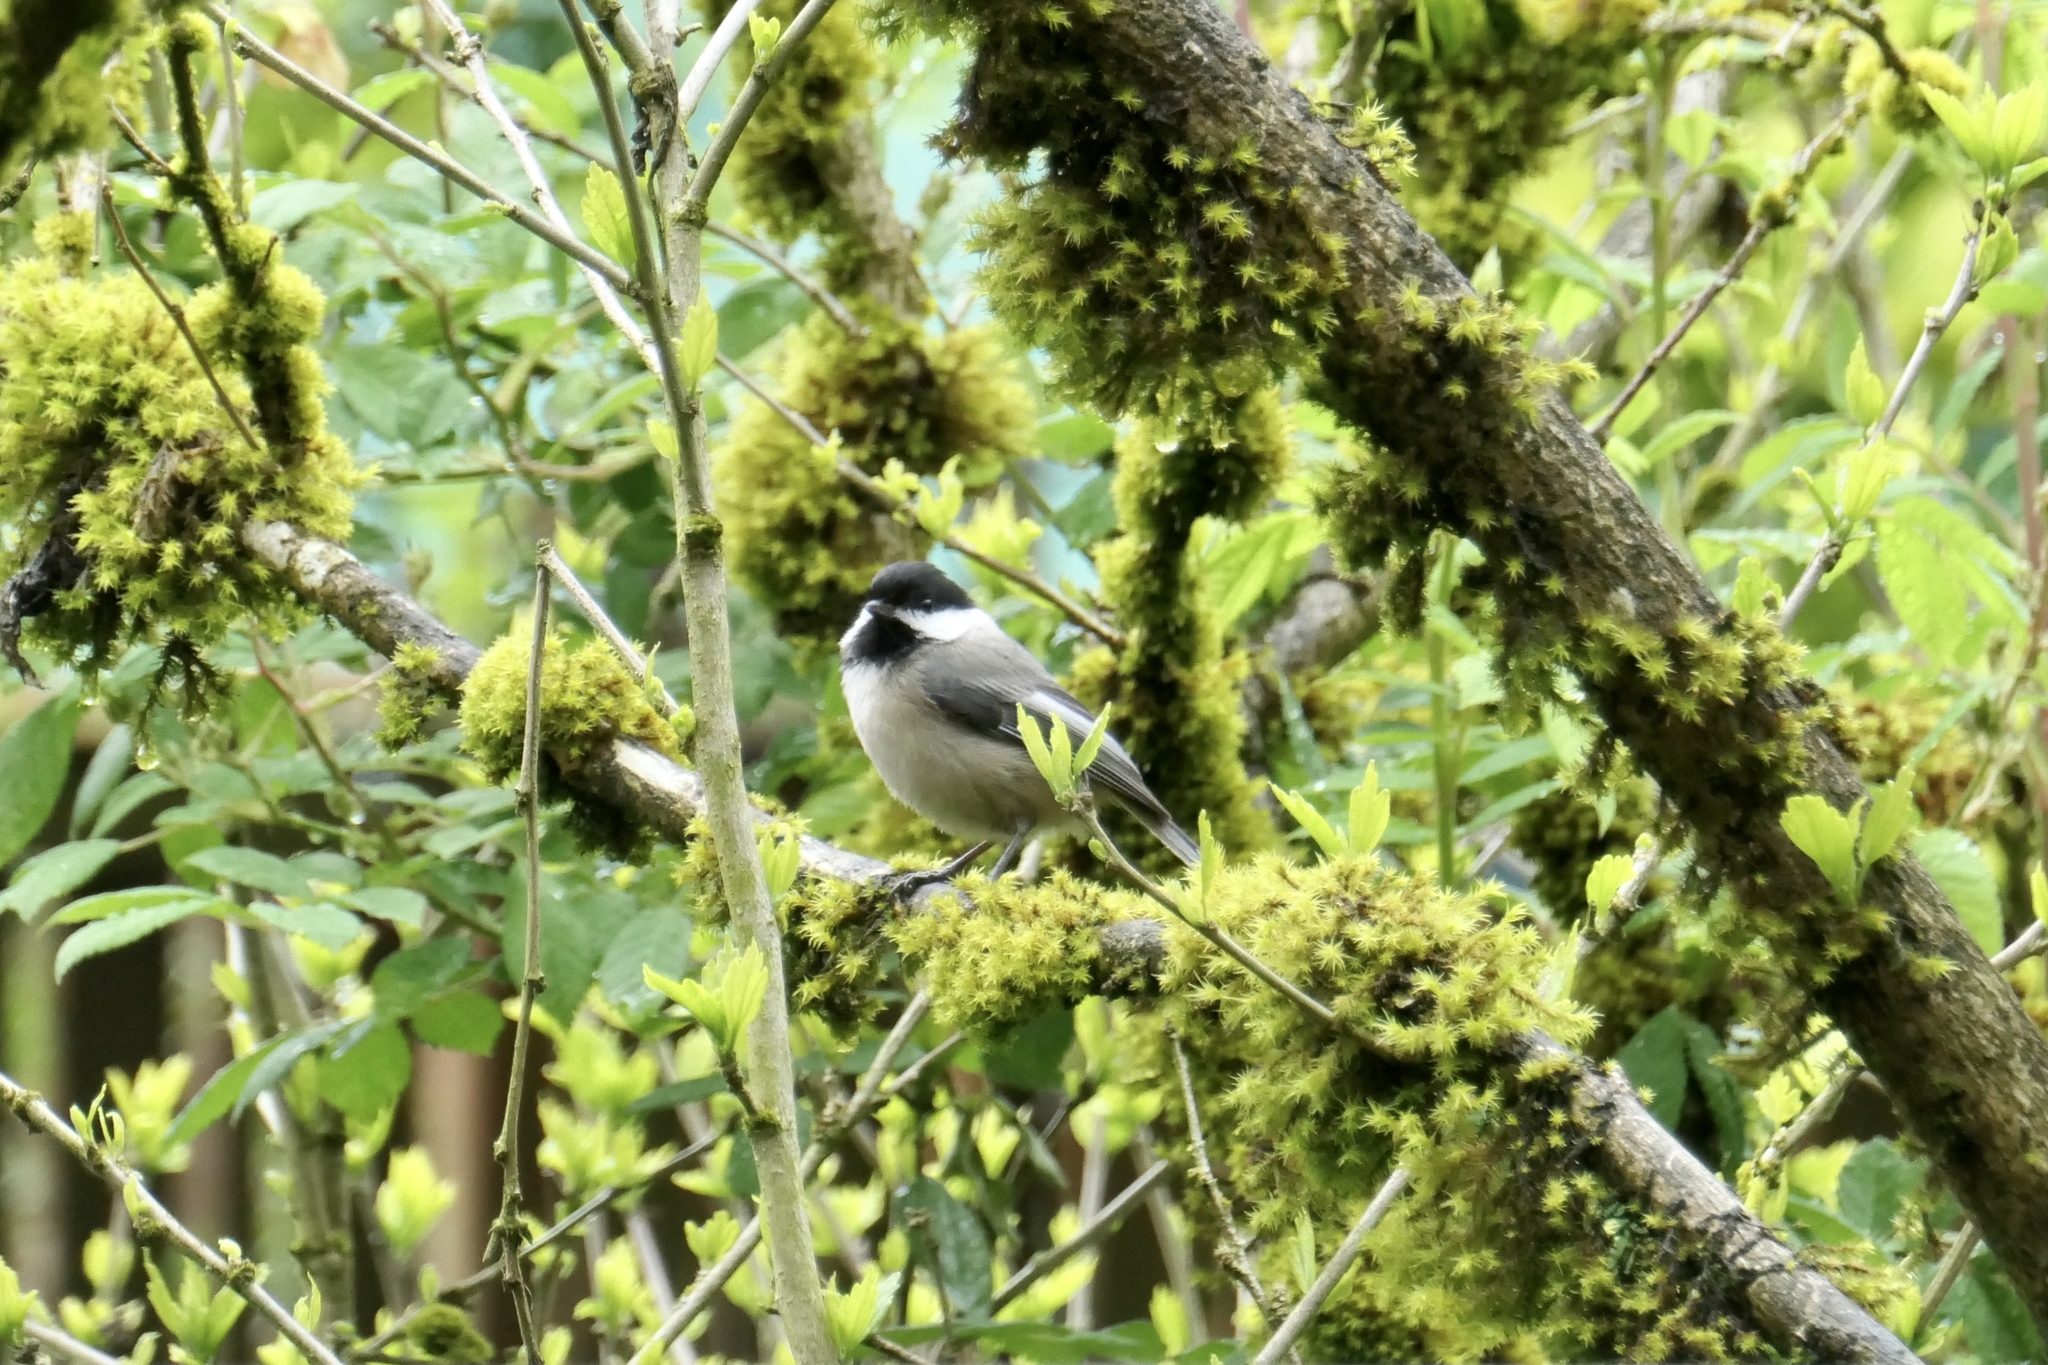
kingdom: Animalia
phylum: Chordata
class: Aves
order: Passeriformes
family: Paridae
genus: Poecile
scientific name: Poecile atricapillus
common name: Black-capped chickadee
